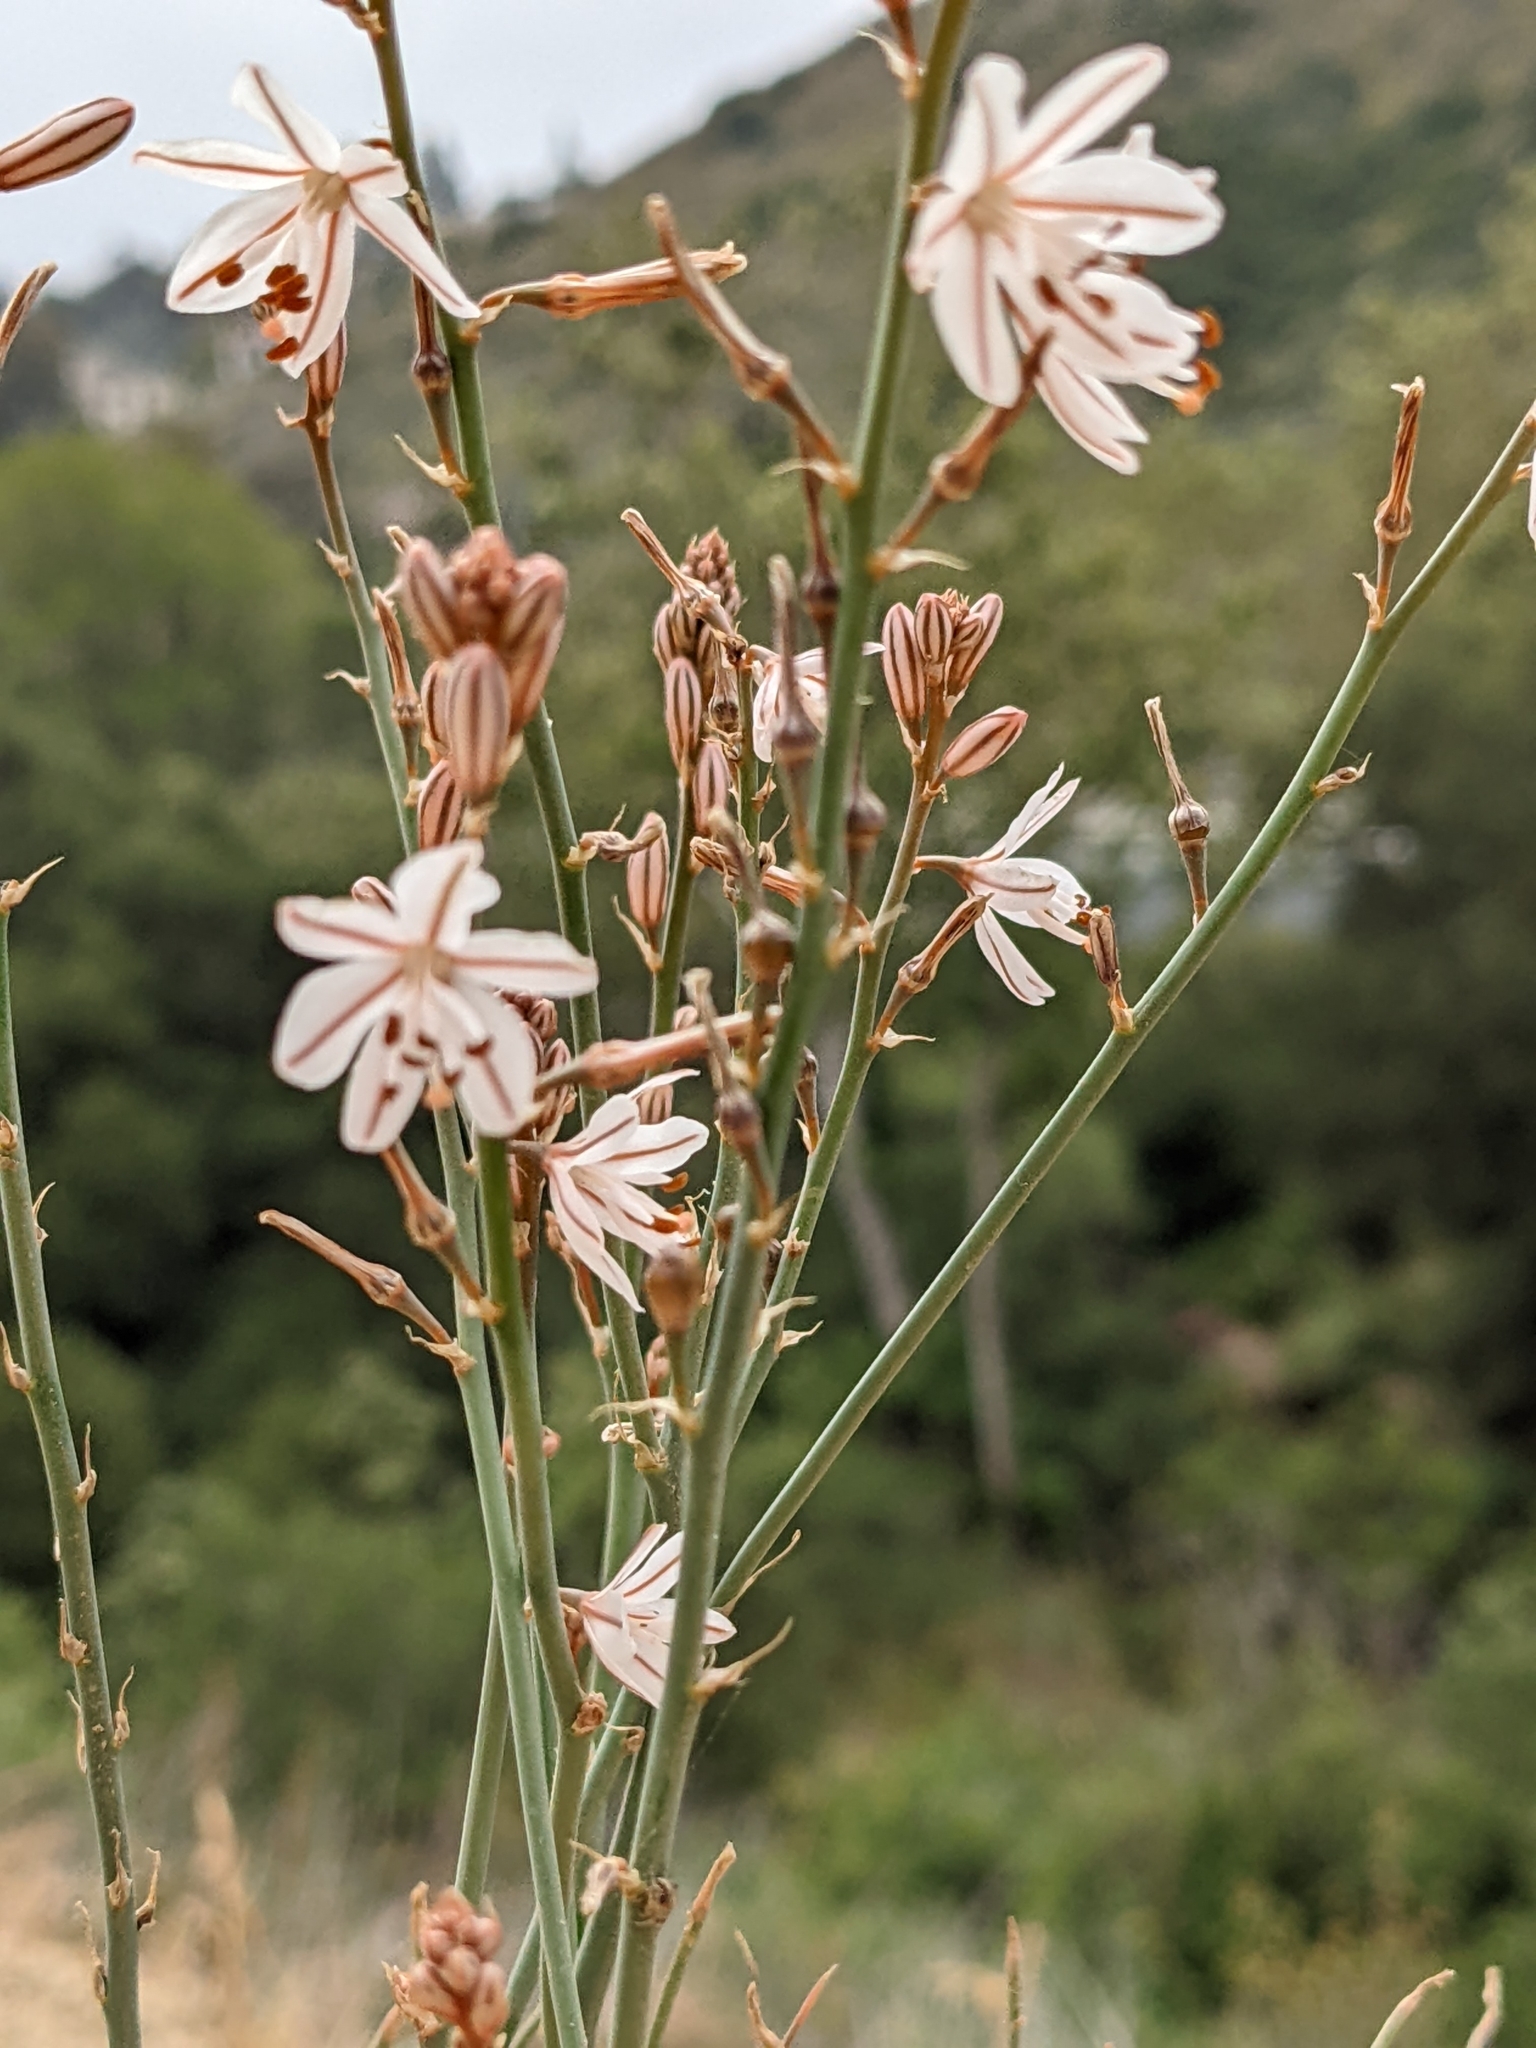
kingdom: Plantae
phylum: Tracheophyta
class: Liliopsida
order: Asparagales
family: Asphodelaceae
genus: Asphodelus
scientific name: Asphodelus fistulosus
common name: Onionweed
